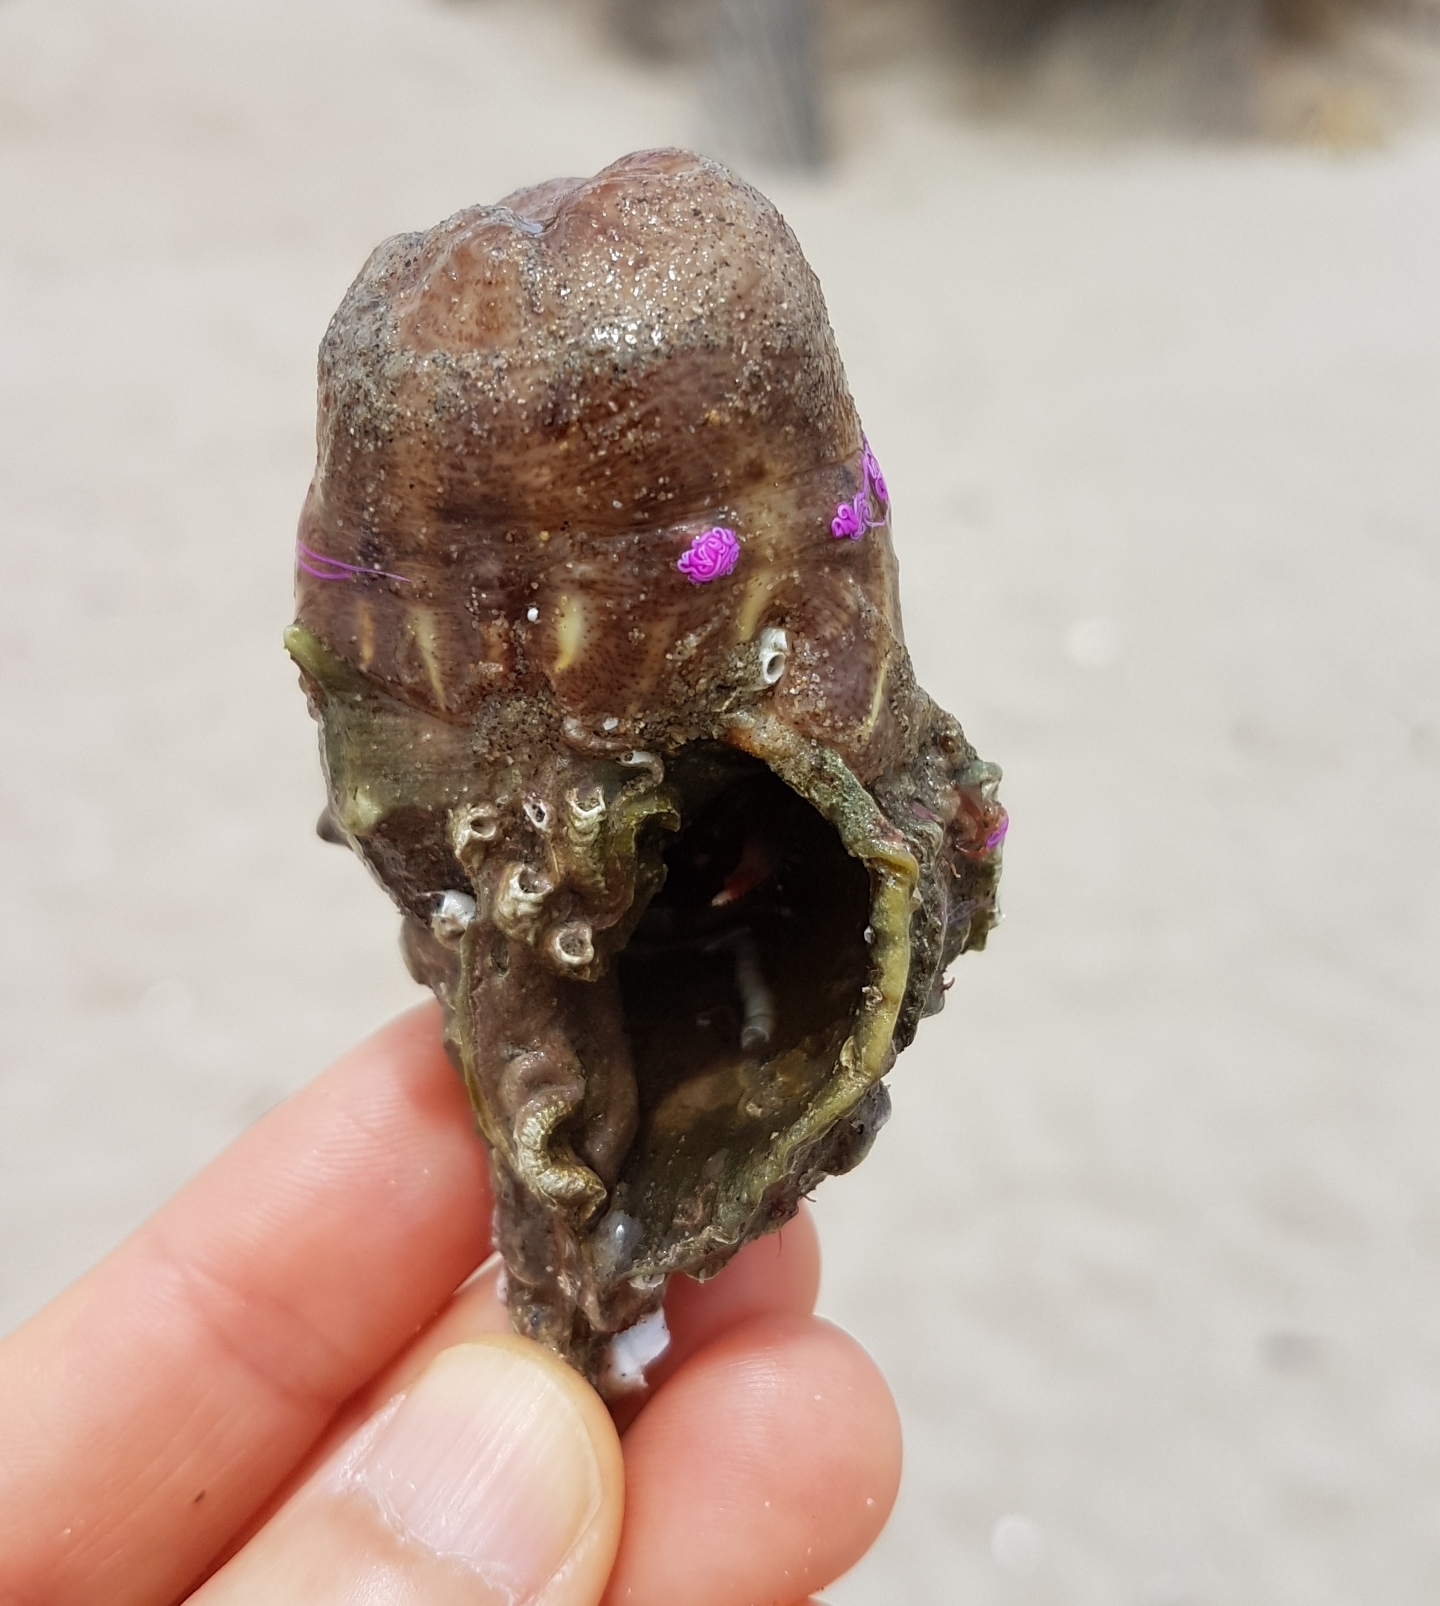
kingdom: Animalia
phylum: Mollusca
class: Gastropoda
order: Neogastropoda
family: Muricidae
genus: Bolinus
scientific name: Bolinus brandaris
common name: Dye murex
